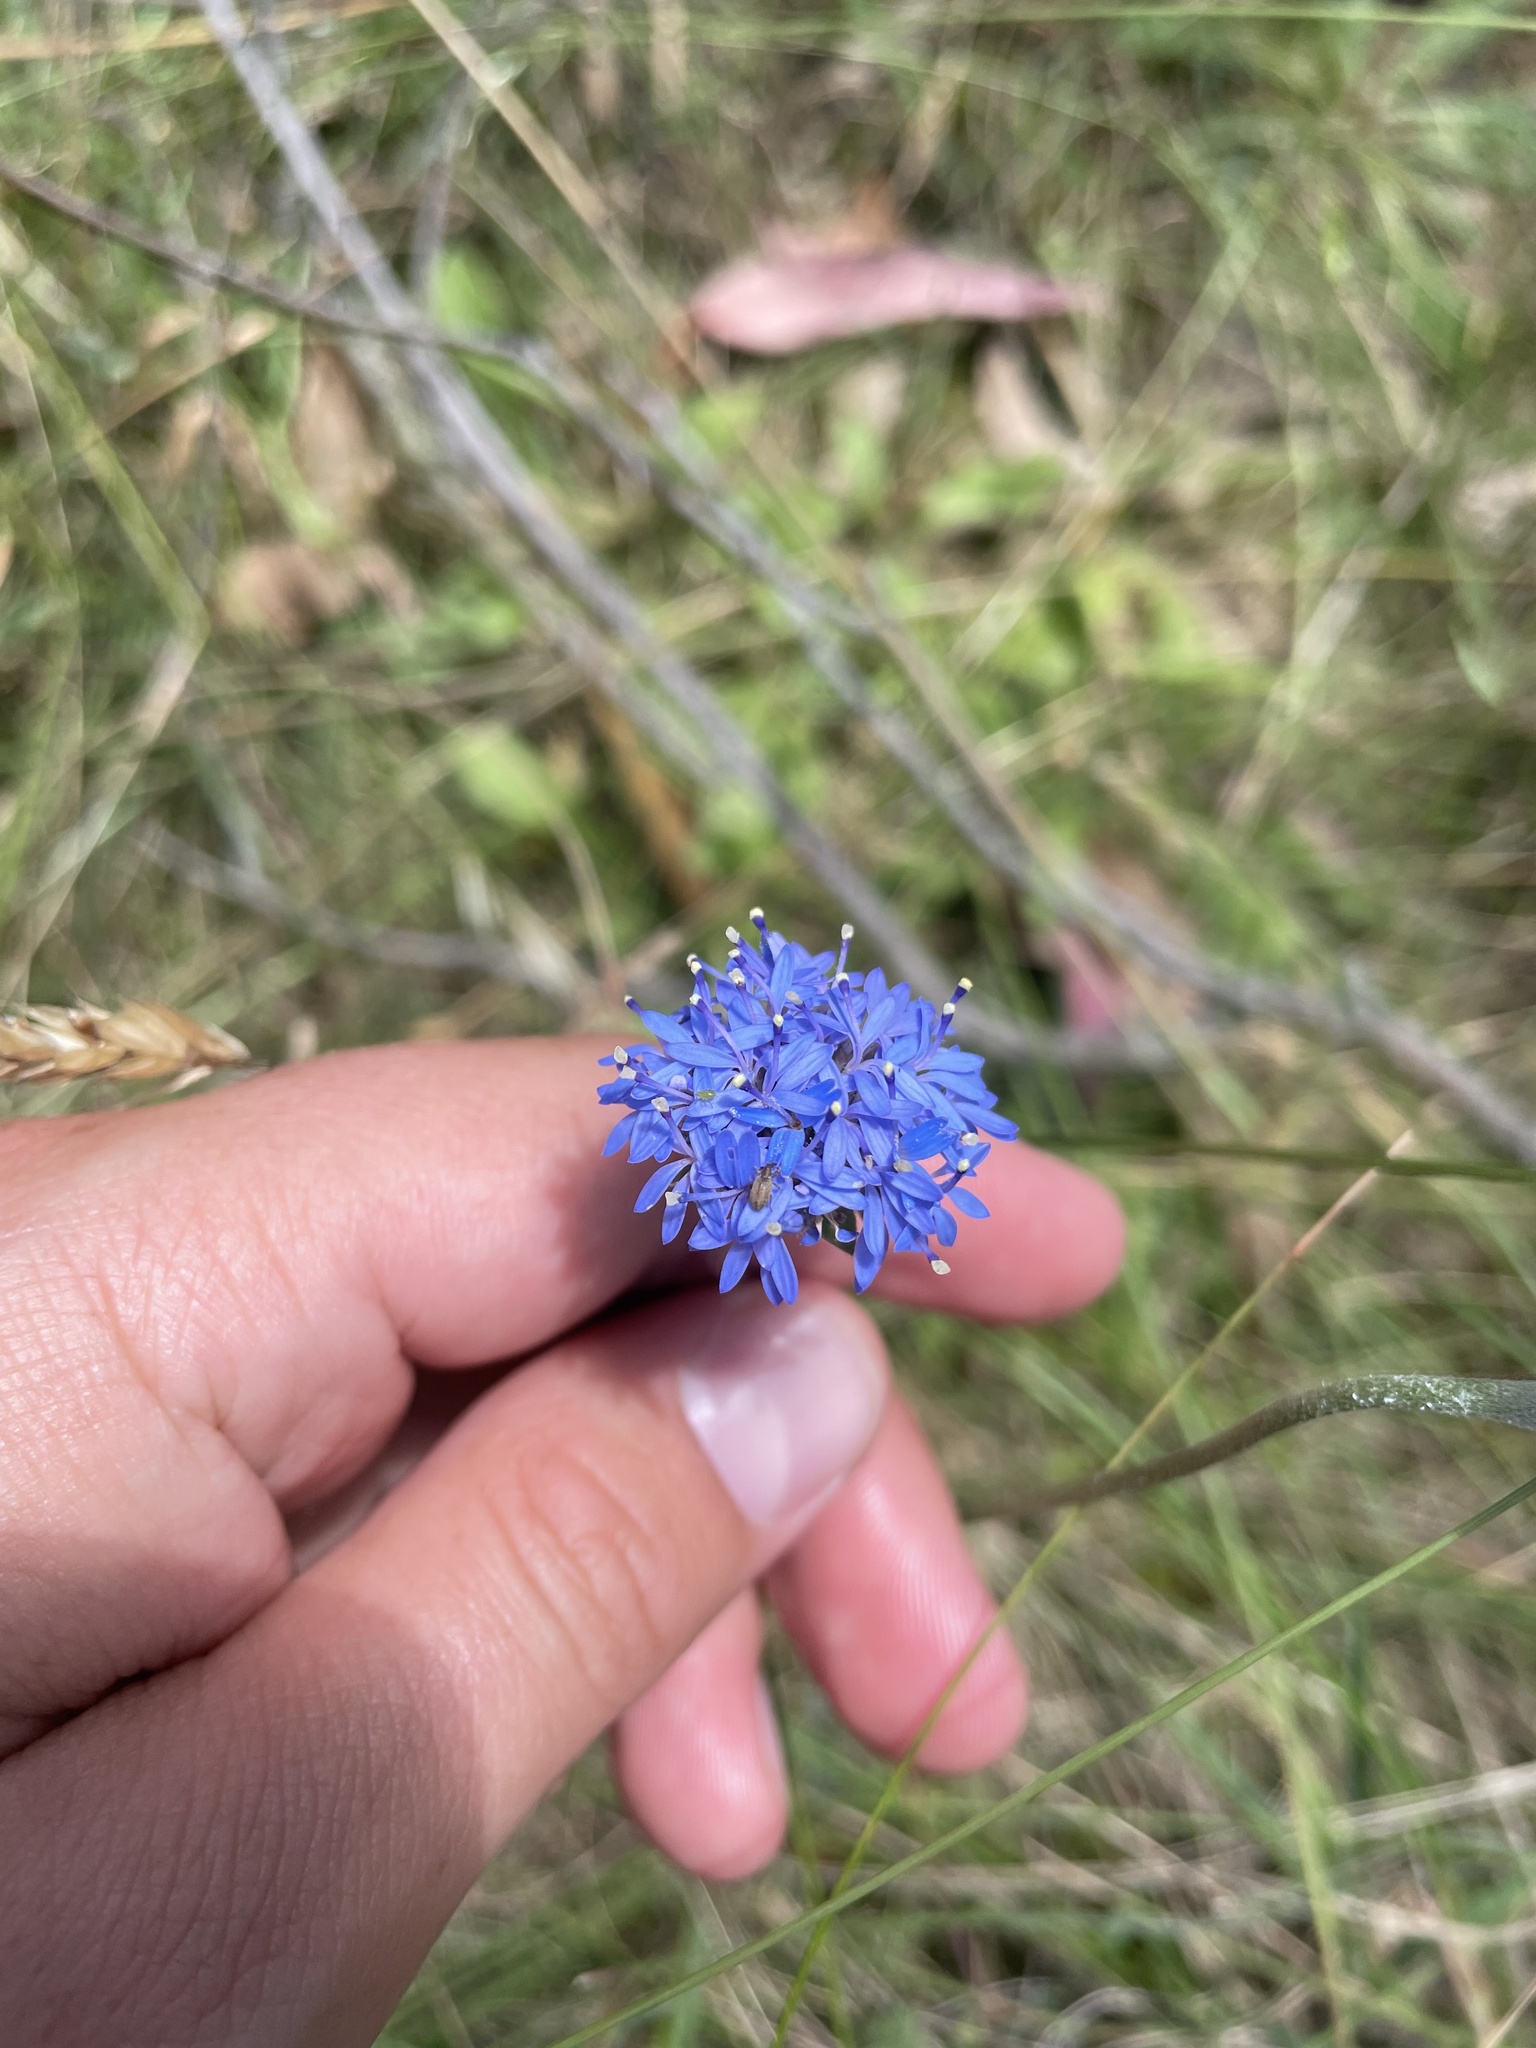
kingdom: Plantae
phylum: Tracheophyta
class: Magnoliopsida
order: Asterales
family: Goodeniaceae
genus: Brunonia
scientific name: Brunonia australis
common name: Blue pincushion
